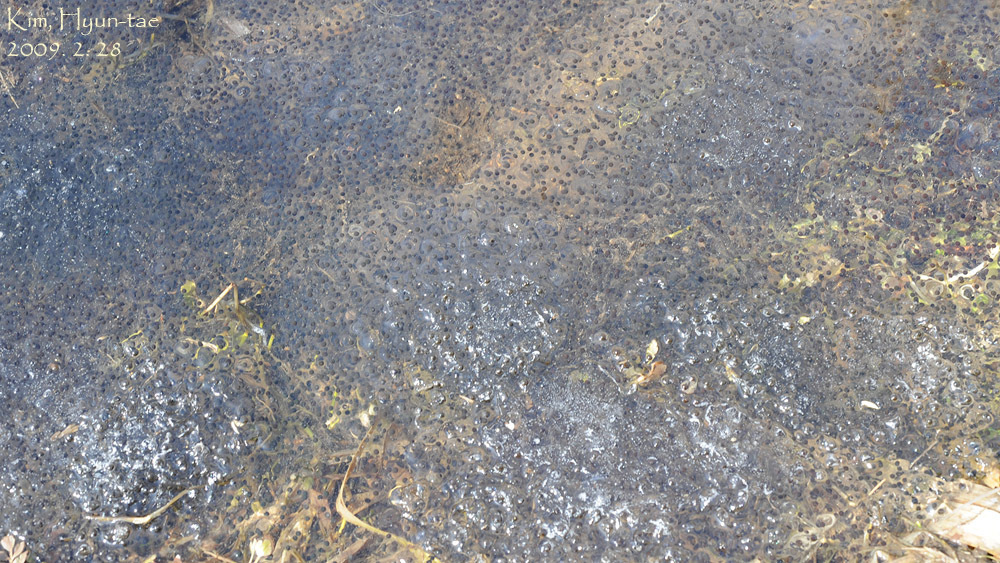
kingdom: Animalia
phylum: Chordata
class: Amphibia
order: Anura
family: Ranidae
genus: Rana
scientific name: Rana uenoi
